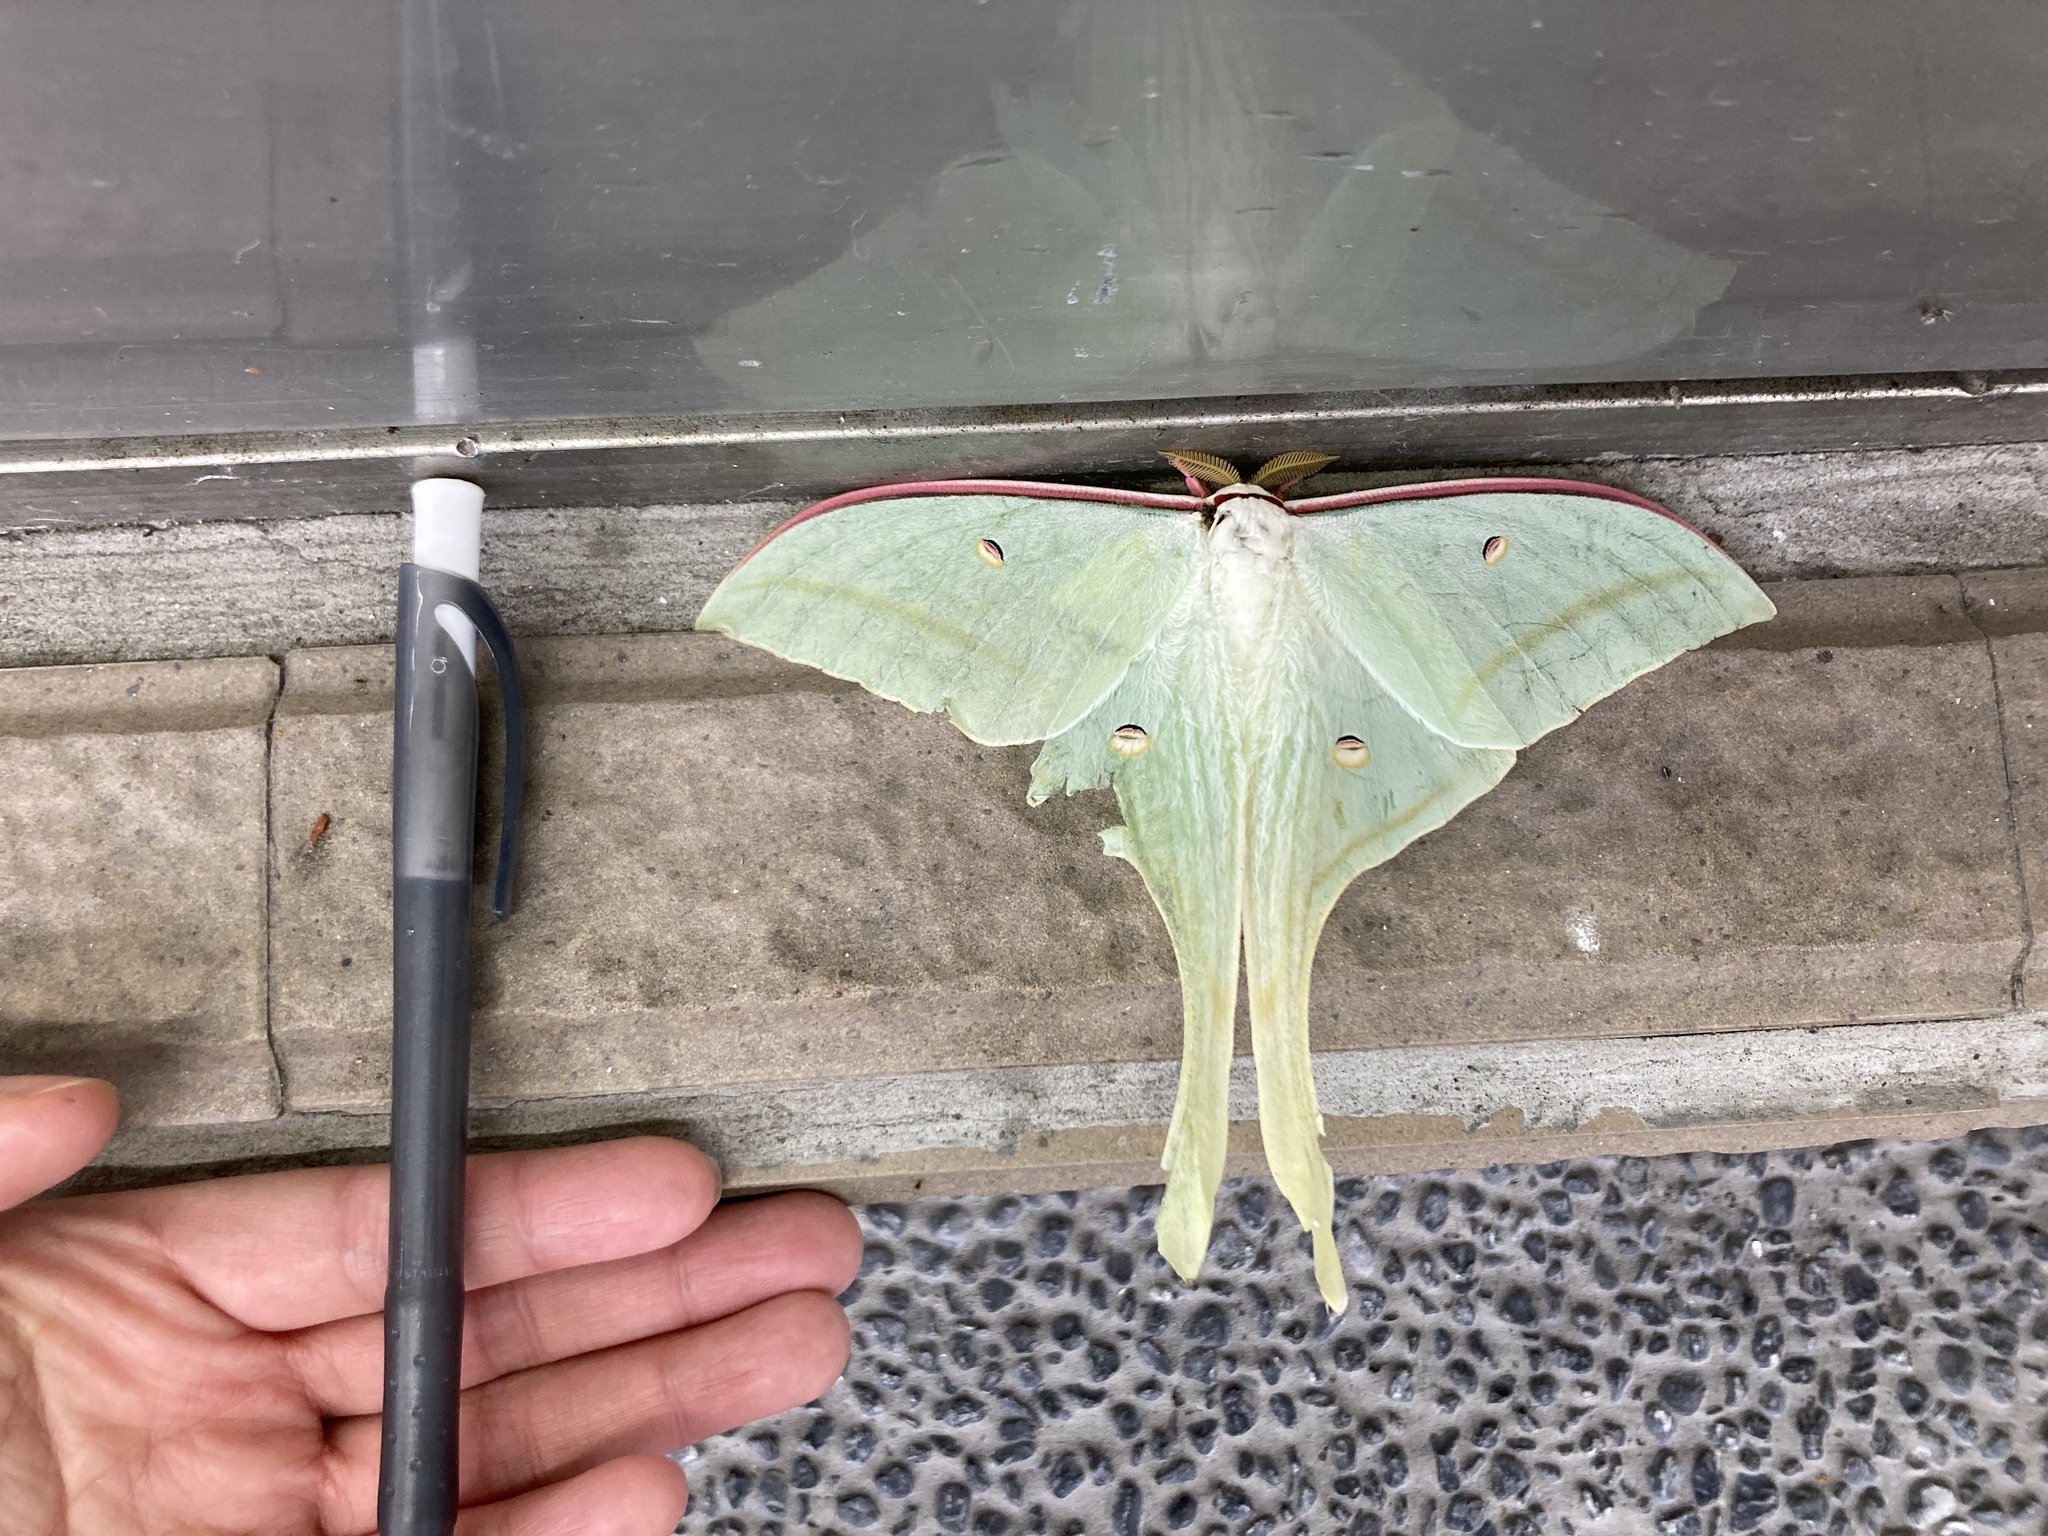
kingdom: Animalia
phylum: Arthropoda
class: Insecta
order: Lepidoptera
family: Saturniidae
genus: Actias
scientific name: Actias ningpoana
